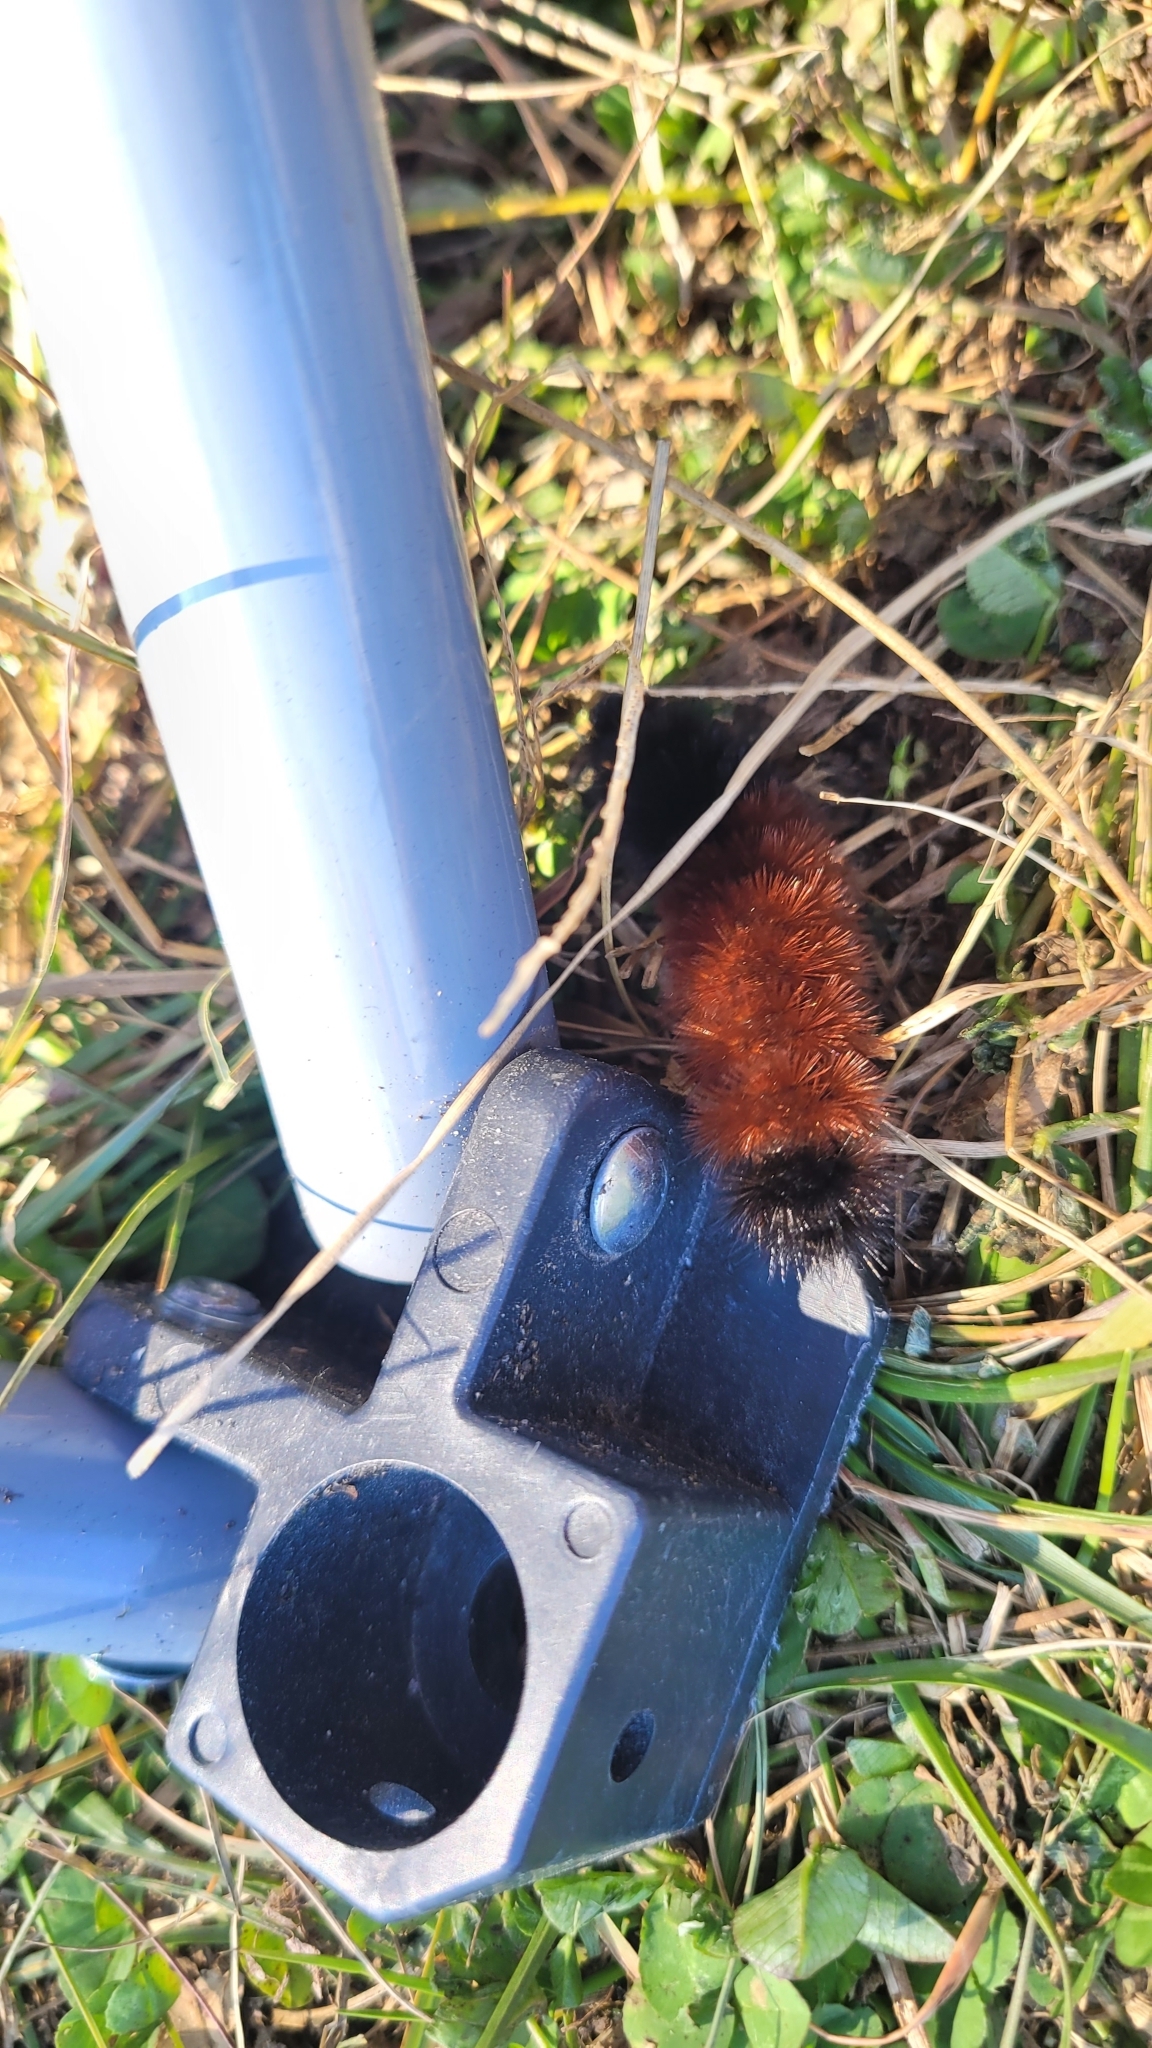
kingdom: Animalia
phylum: Arthropoda
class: Insecta
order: Lepidoptera
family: Erebidae
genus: Pyrrharctia
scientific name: Pyrrharctia isabella
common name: Isabella tiger moth
